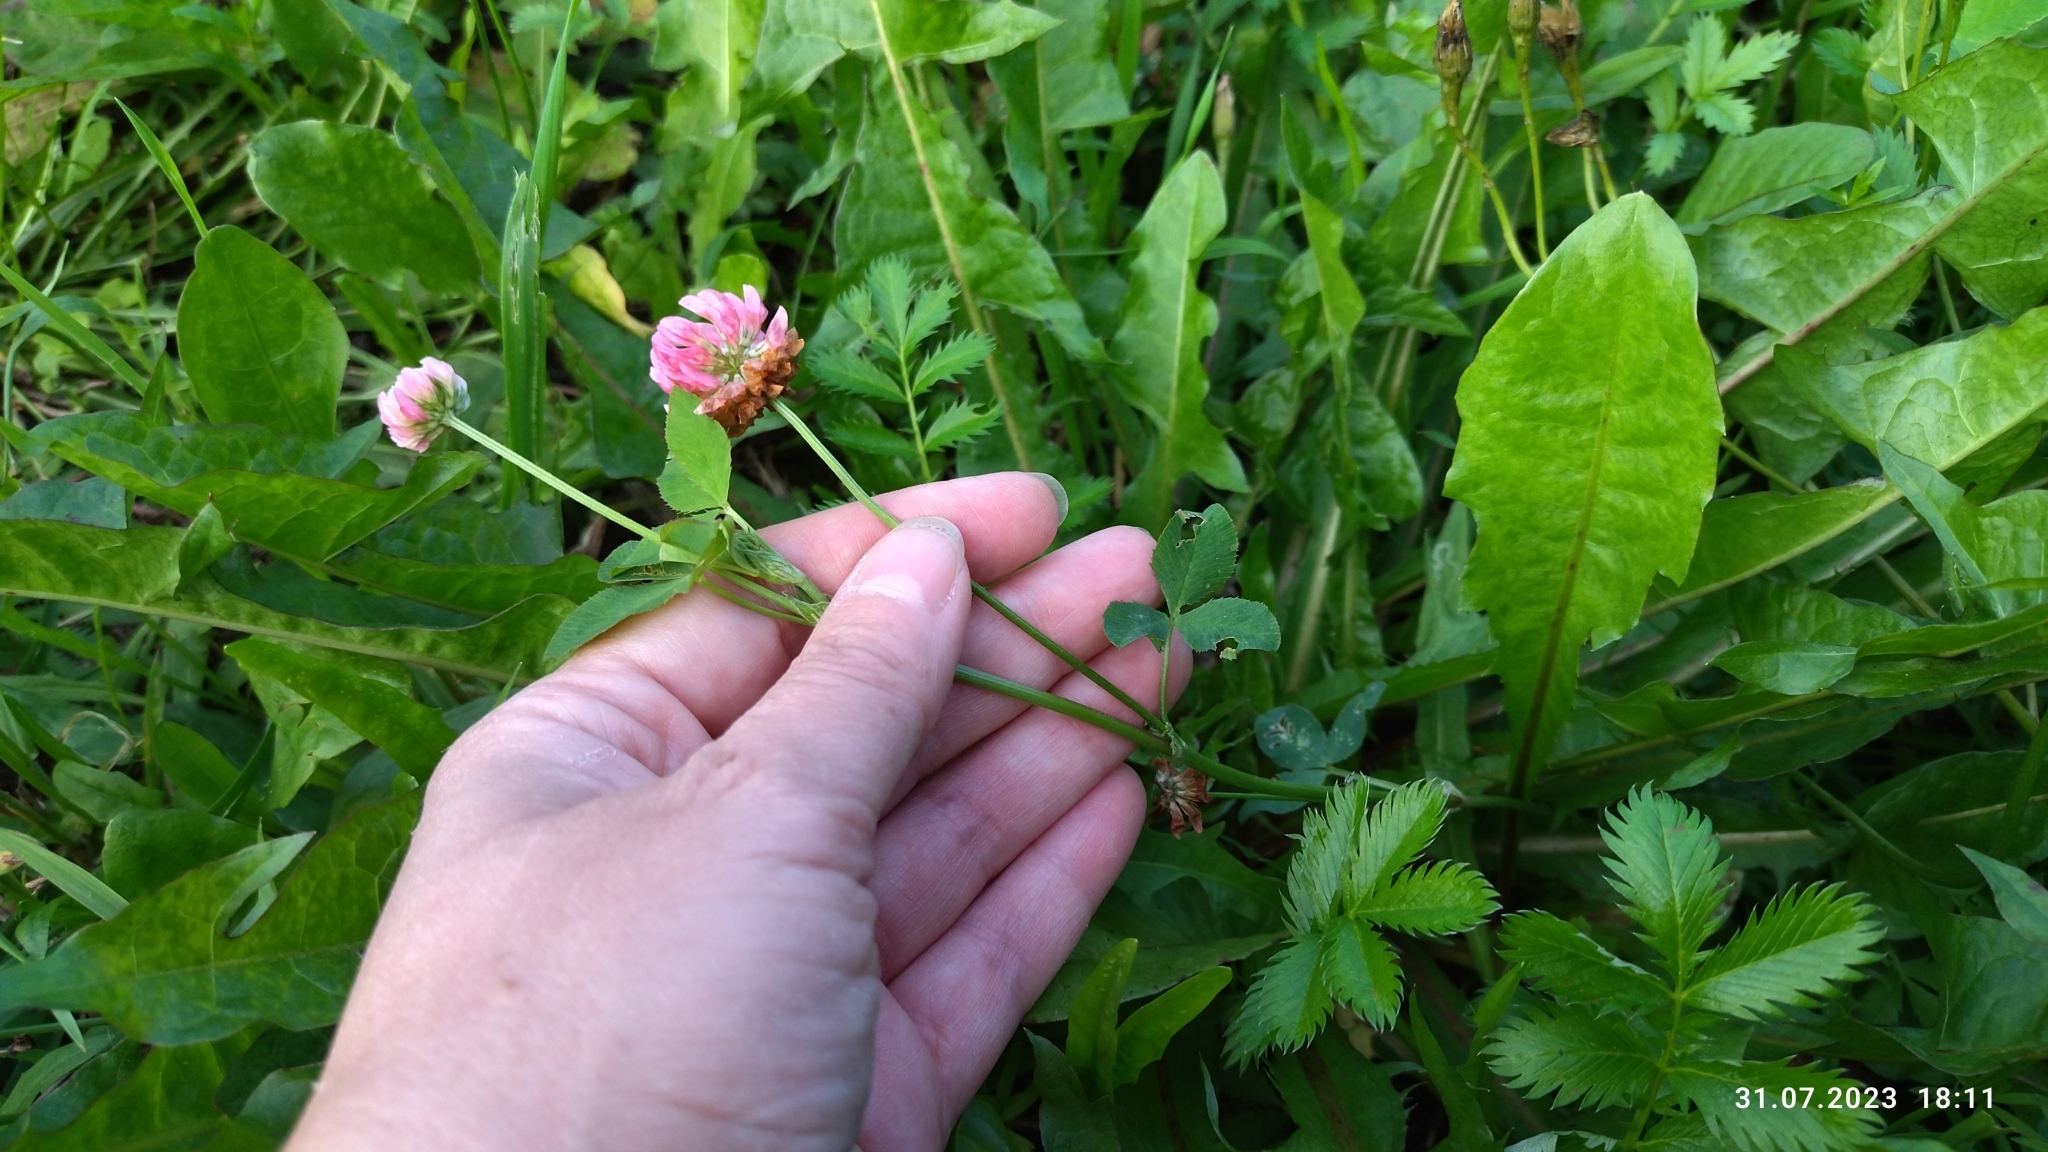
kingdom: Plantae
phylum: Tracheophyta
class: Magnoliopsida
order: Fabales
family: Fabaceae
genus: Trifolium
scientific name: Trifolium hybridum
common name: Alsike clover
